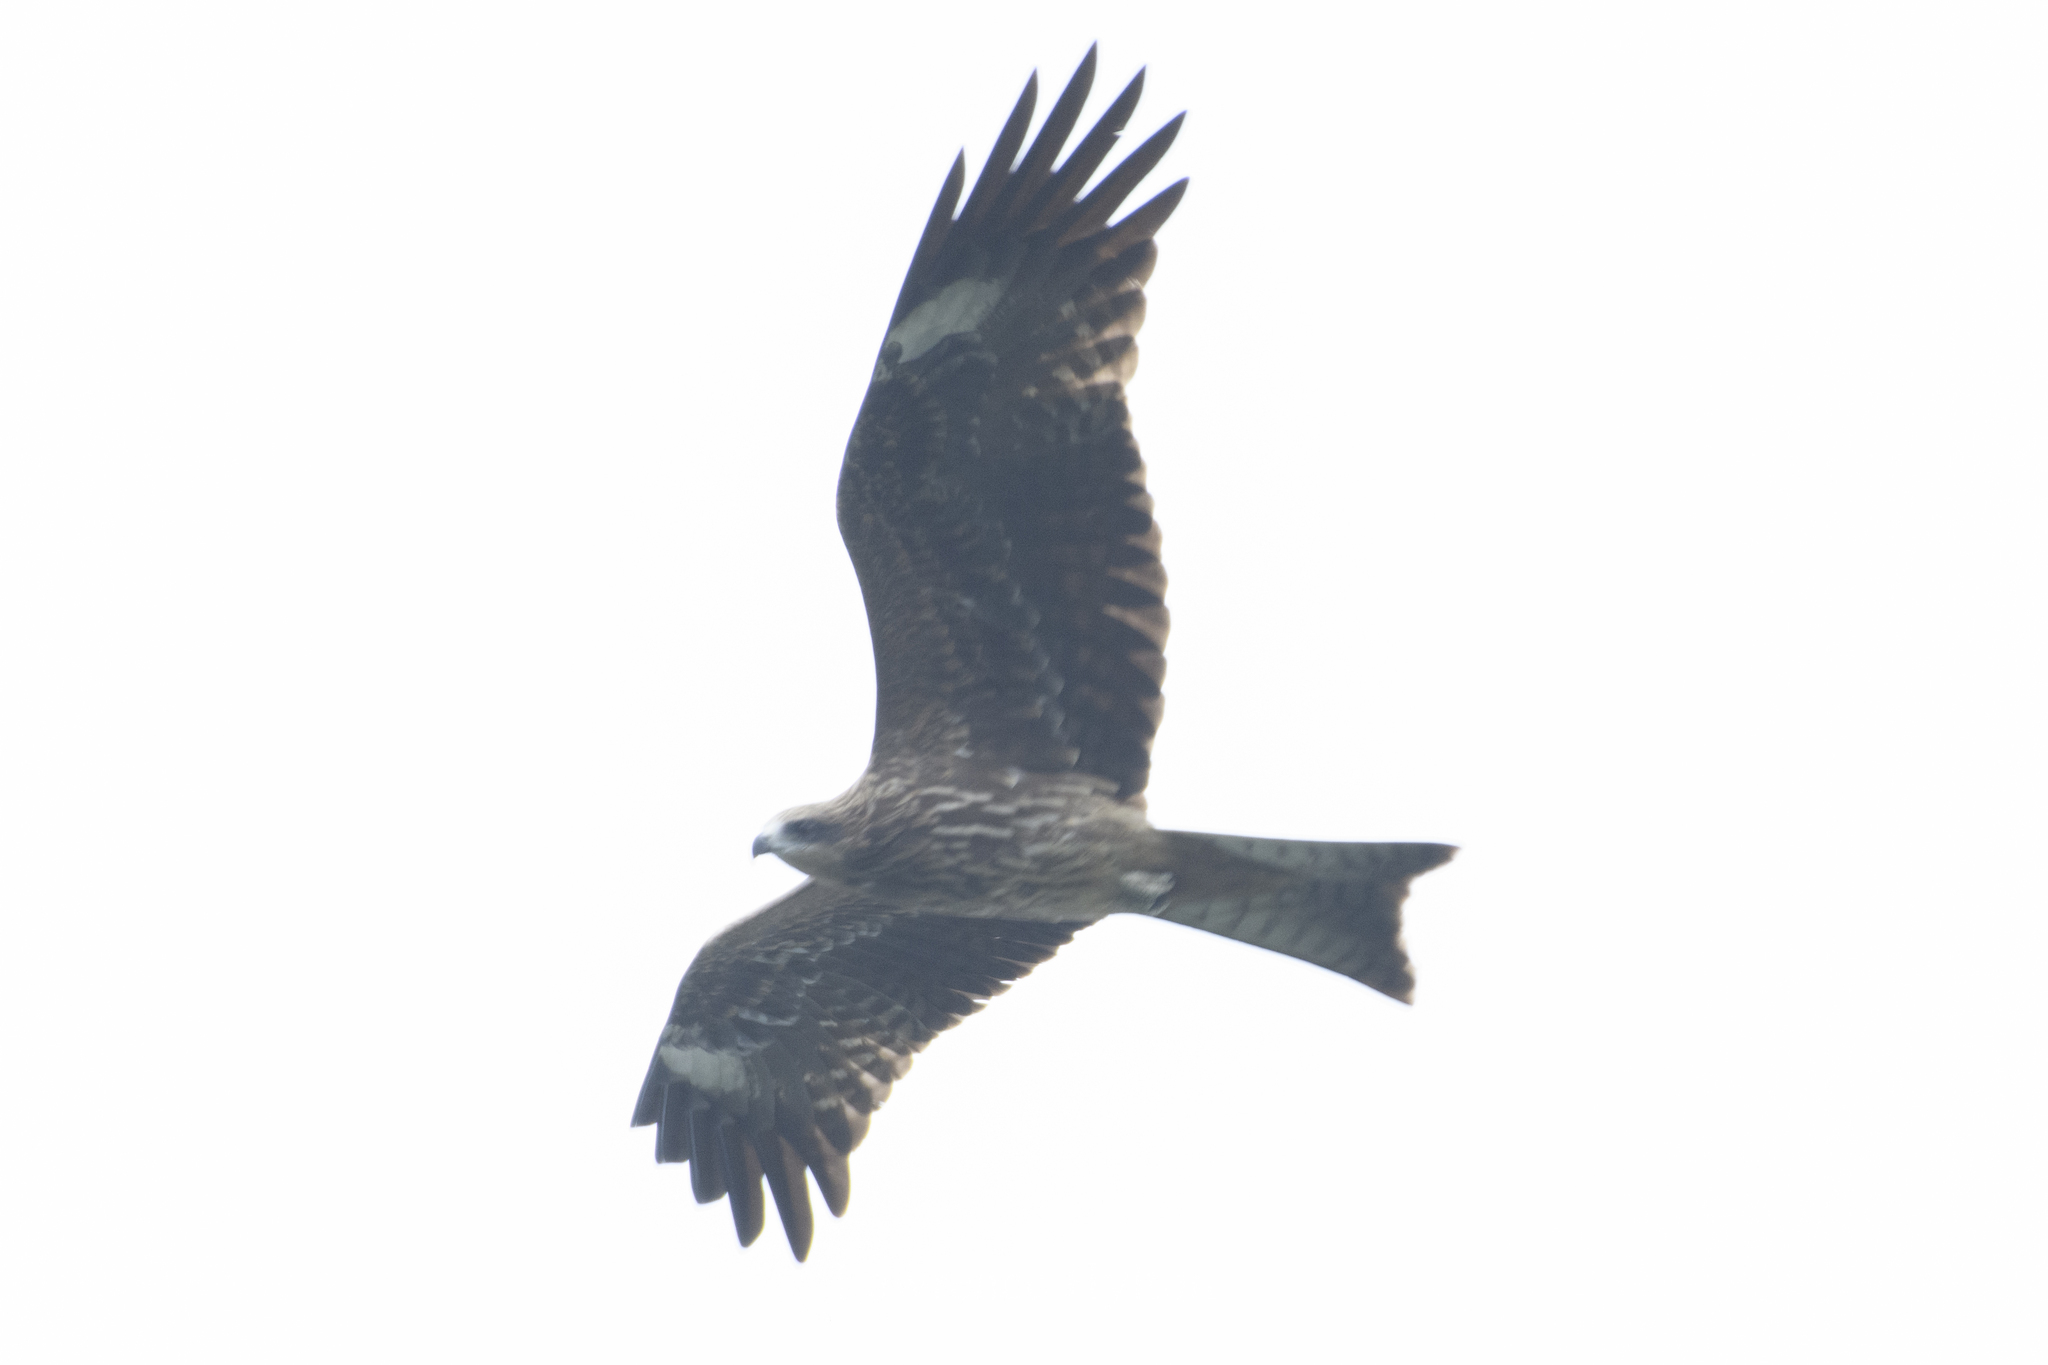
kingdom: Animalia
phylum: Chordata
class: Aves
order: Accipitriformes
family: Accipitridae
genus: Milvus
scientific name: Milvus migrans
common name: Black kite
